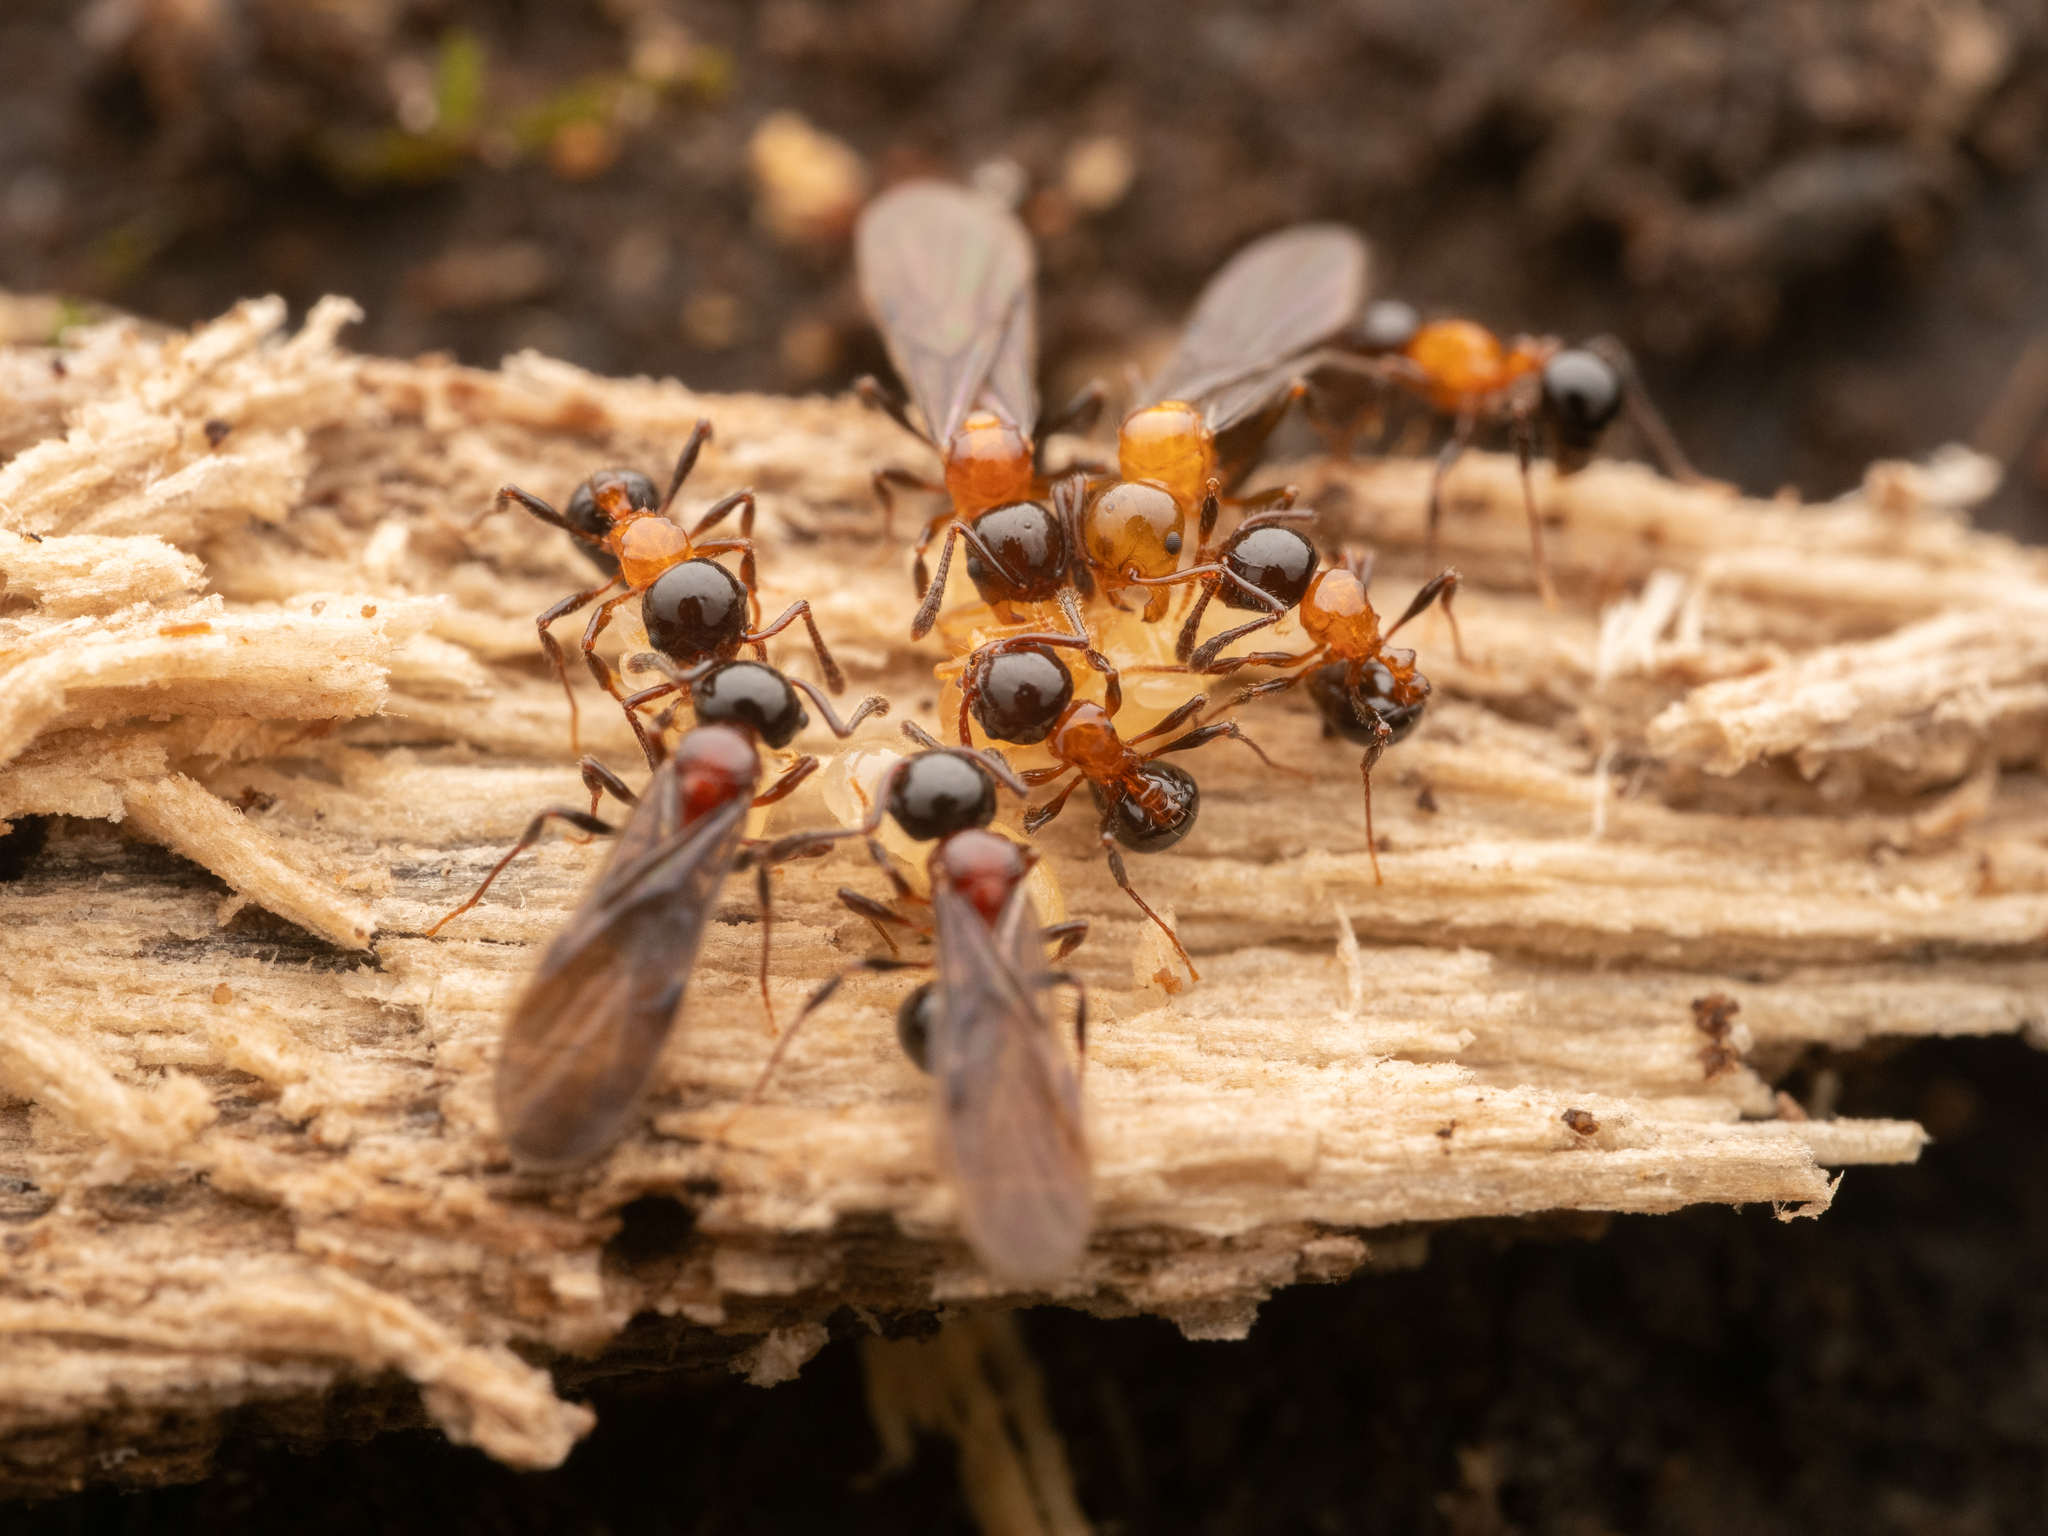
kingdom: Animalia
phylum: Arthropoda
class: Insecta
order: Hymenoptera
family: Formicidae
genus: Pristomyrmex
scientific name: Pristomyrmex
